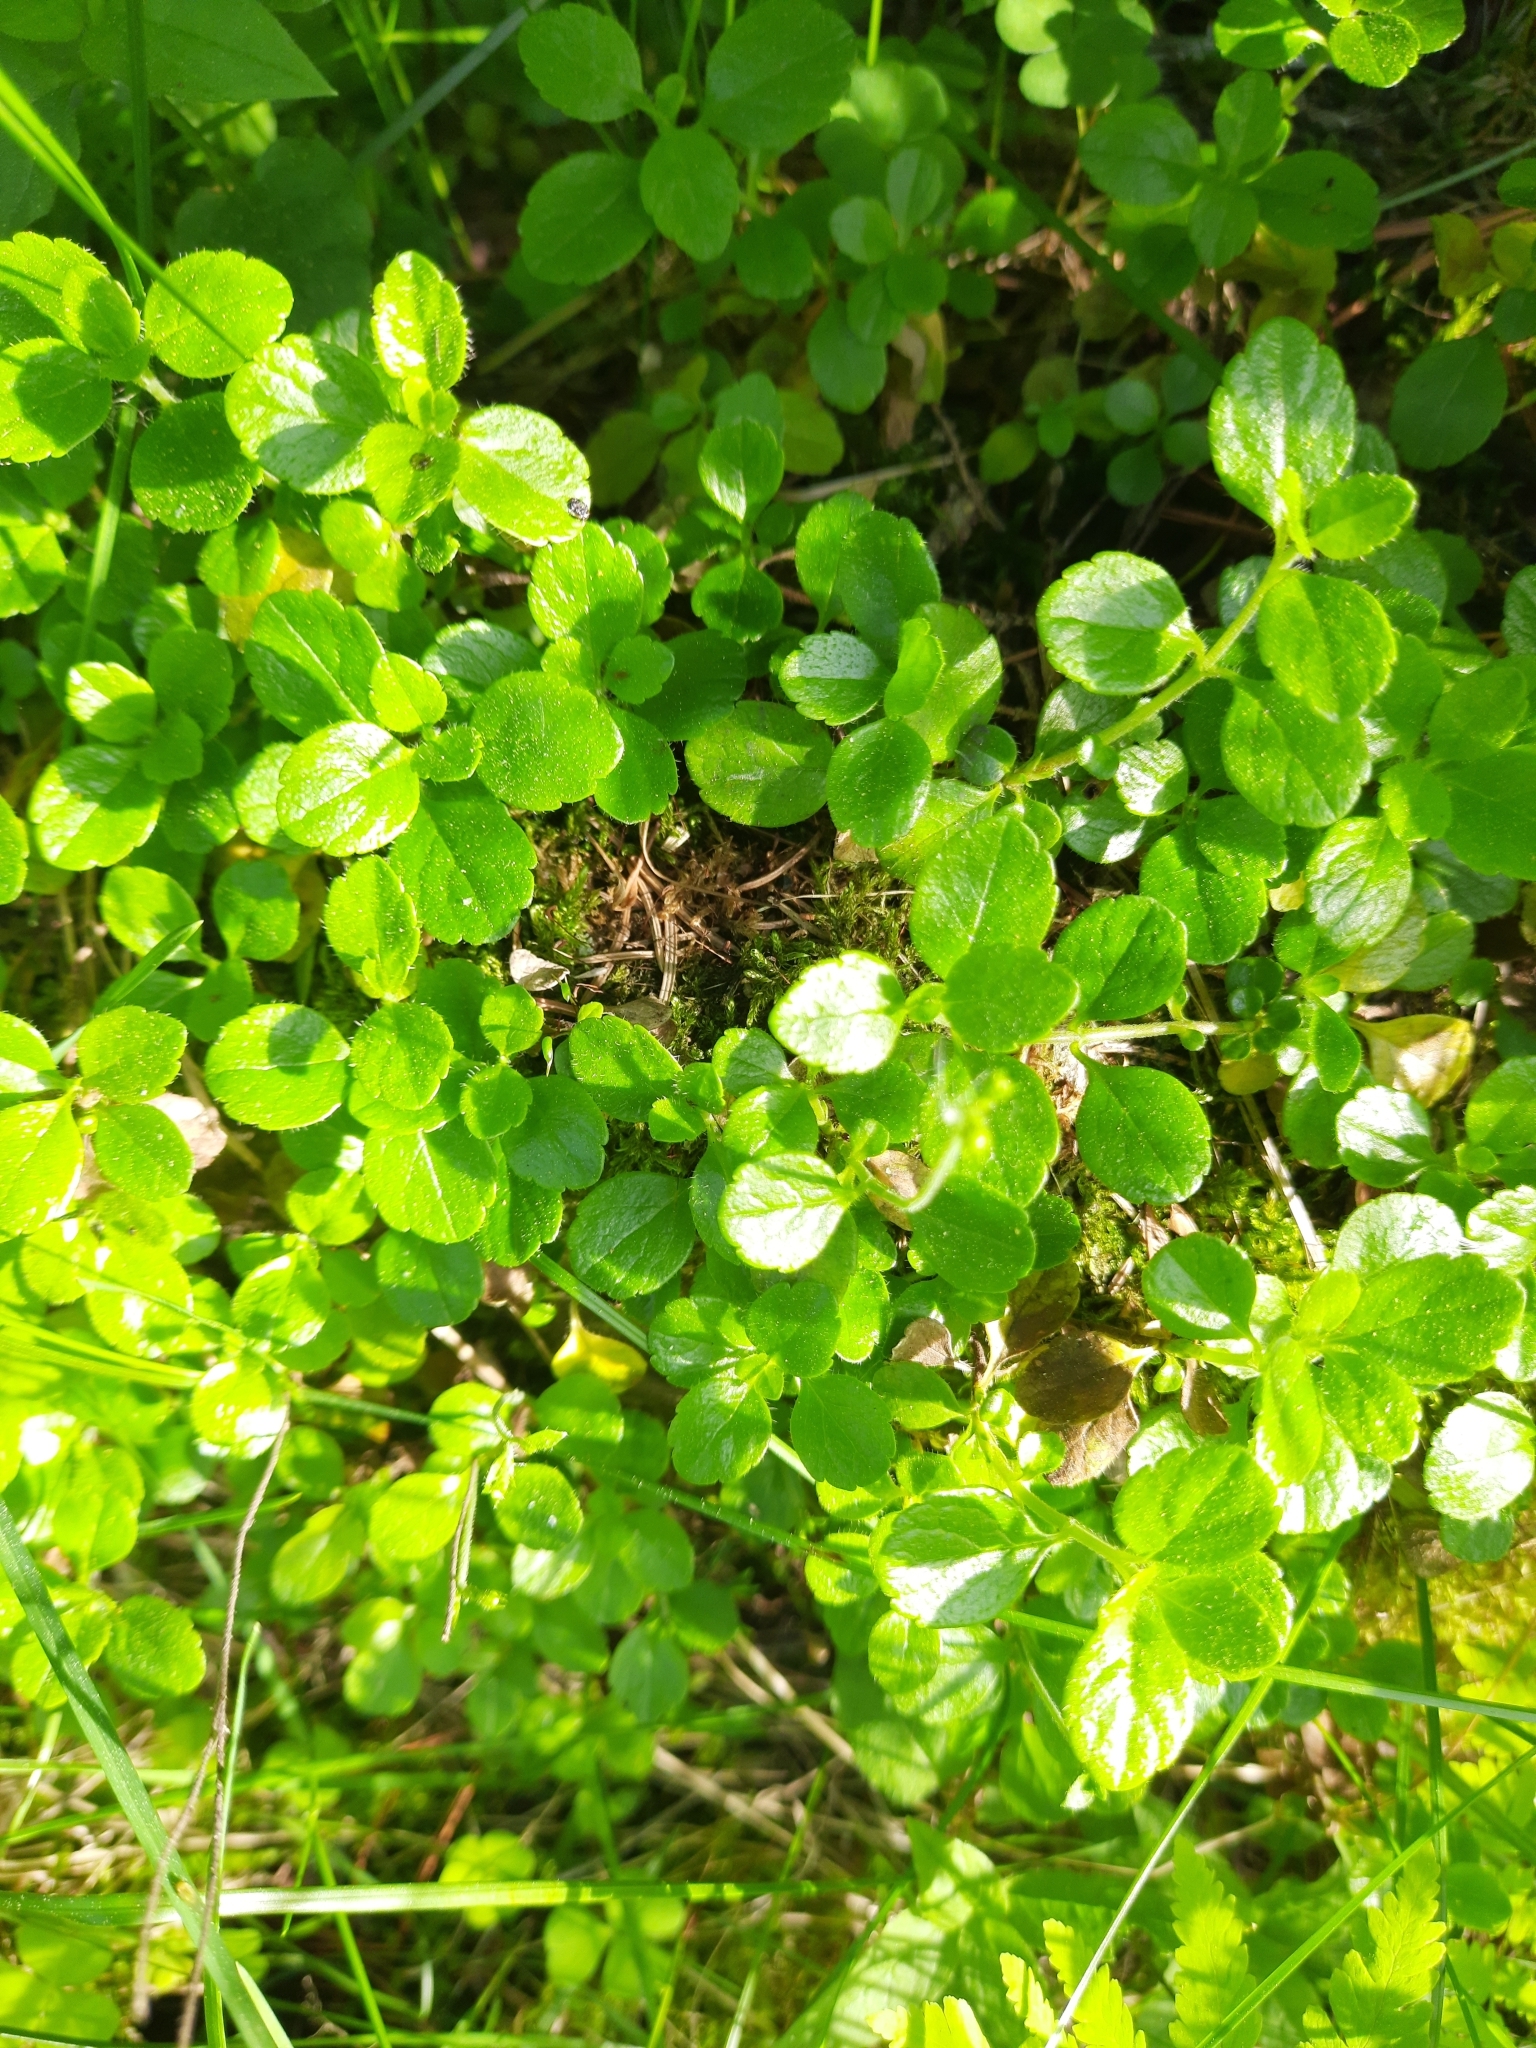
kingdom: Plantae
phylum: Tracheophyta
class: Magnoliopsida
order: Dipsacales
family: Caprifoliaceae
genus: Linnaea
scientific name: Linnaea borealis
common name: Twinflower
